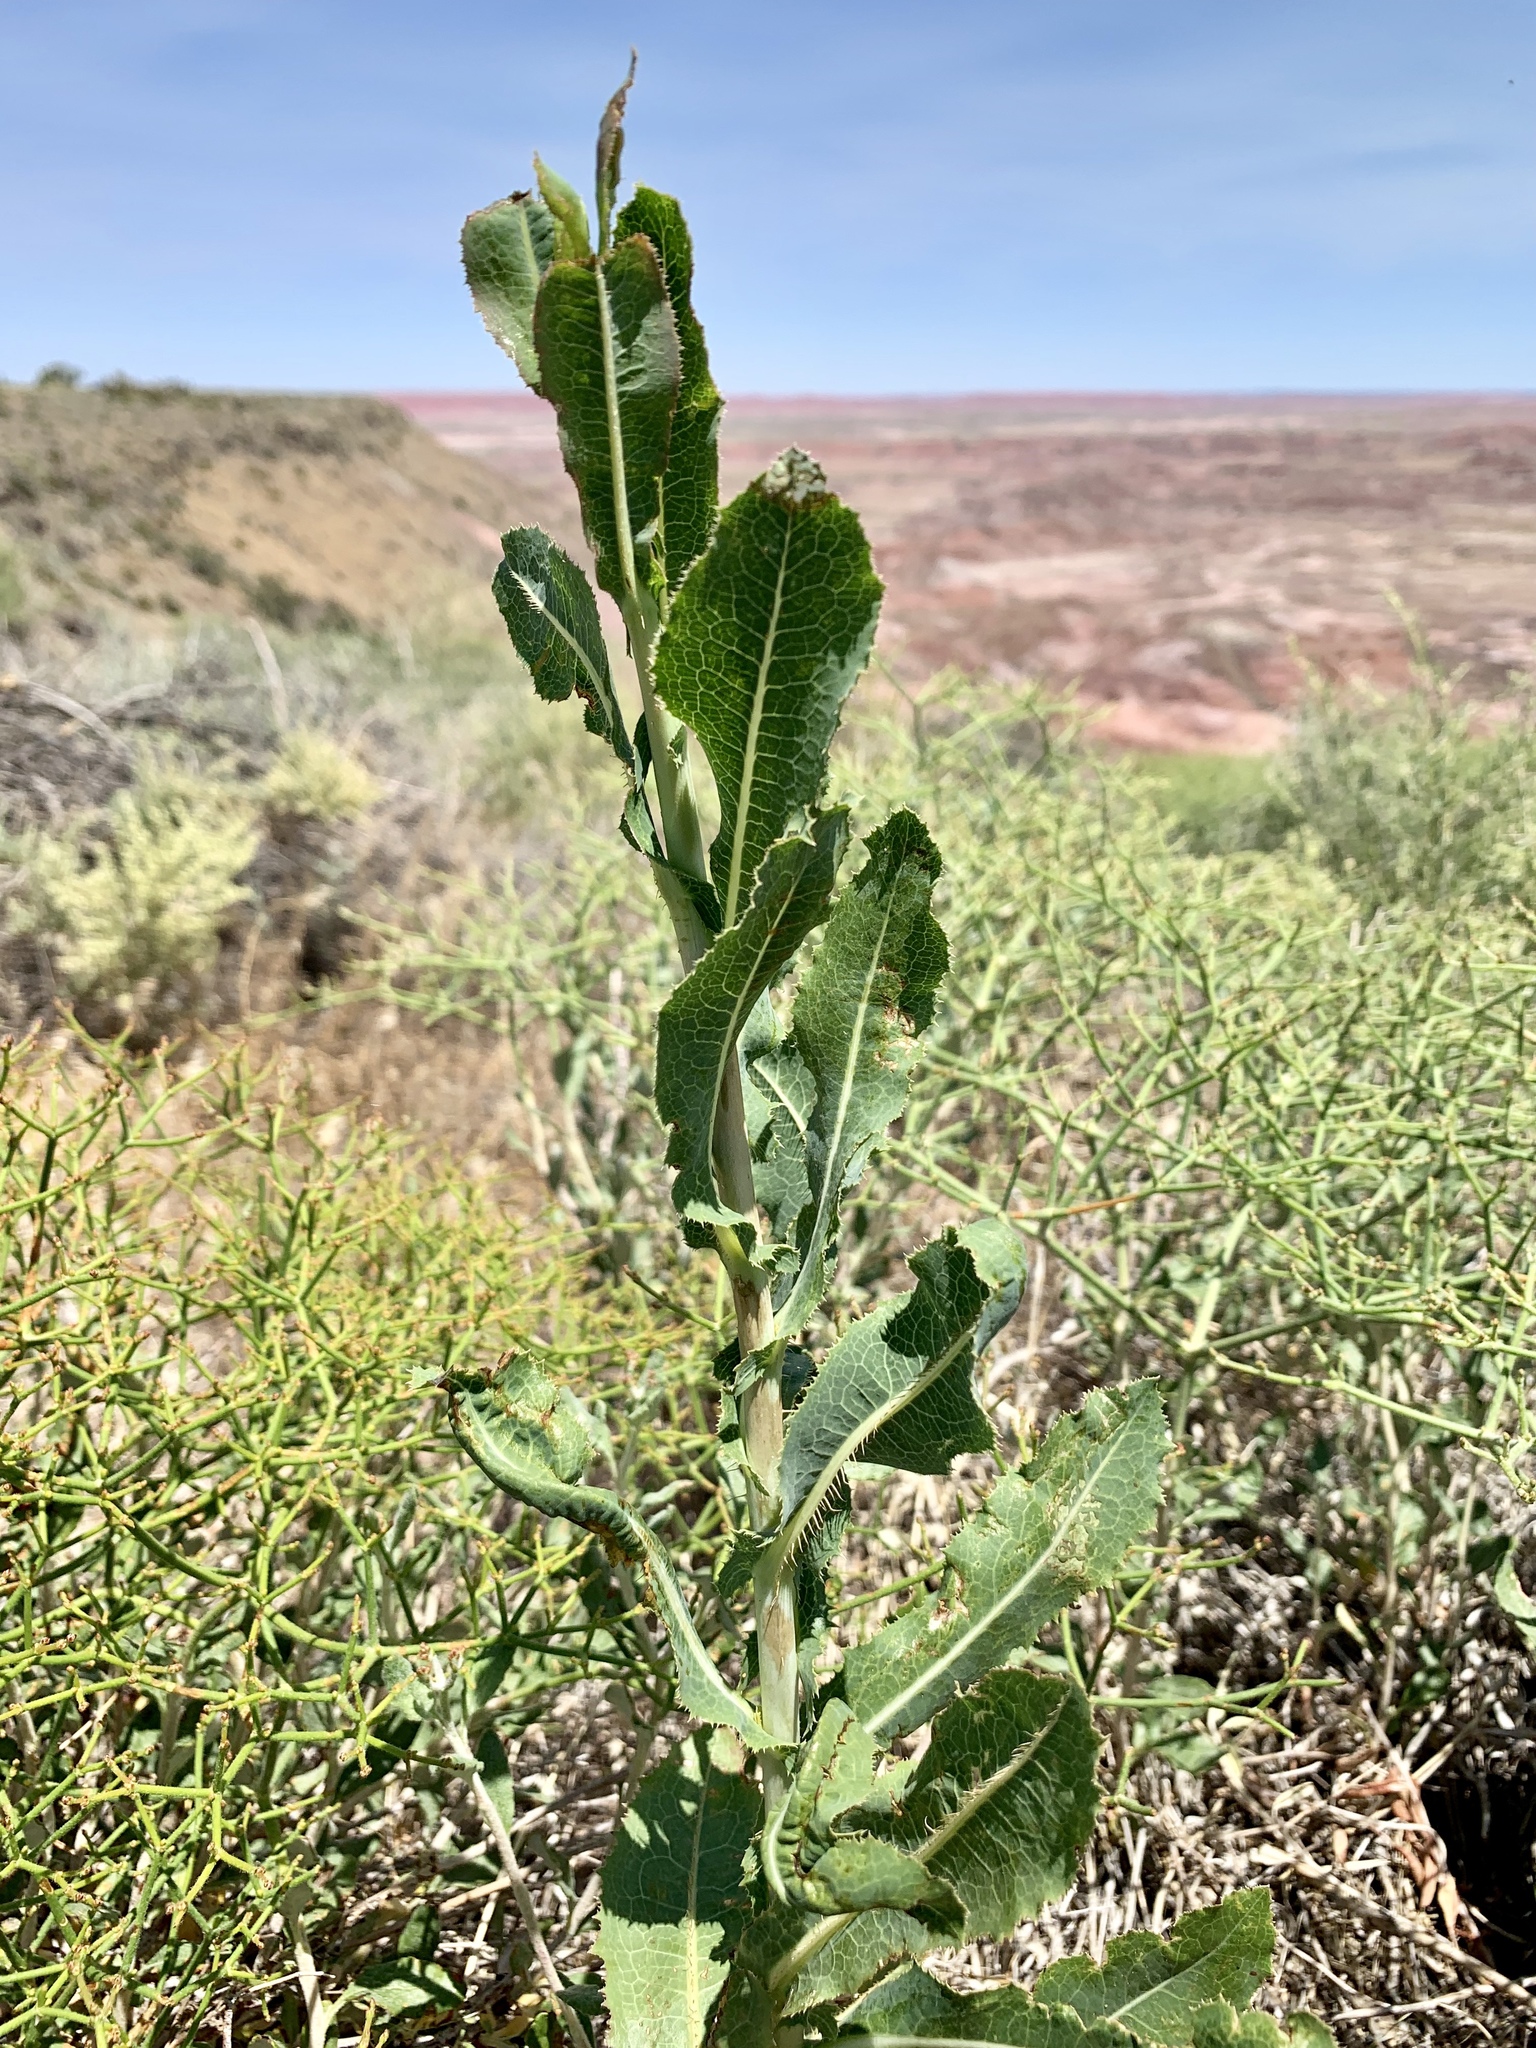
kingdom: Plantae
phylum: Tracheophyta
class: Magnoliopsida
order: Asterales
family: Asteraceae
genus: Lactuca
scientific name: Lactuca serriola
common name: Prickly lettuce
